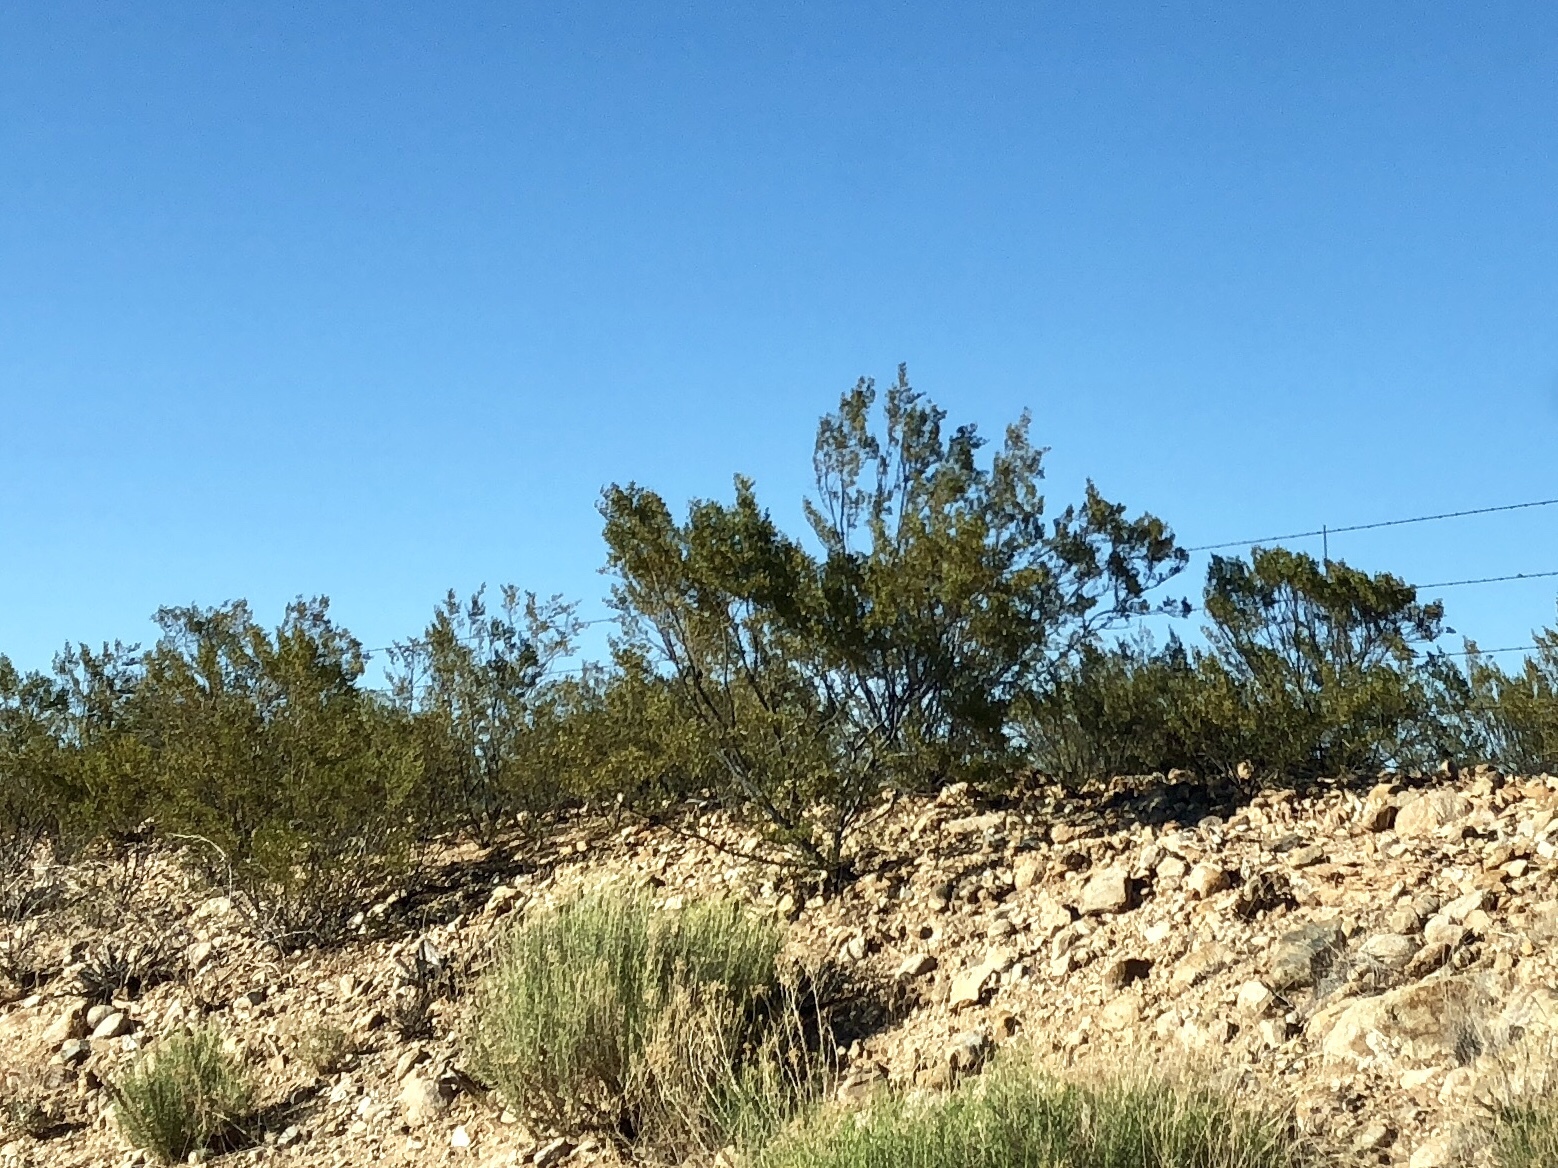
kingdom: Plantae
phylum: Tracheophyta
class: Magnoliopsida
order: Zygophyllales
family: Zygophyllaceae
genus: Larrea
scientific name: Larrea tridentata
